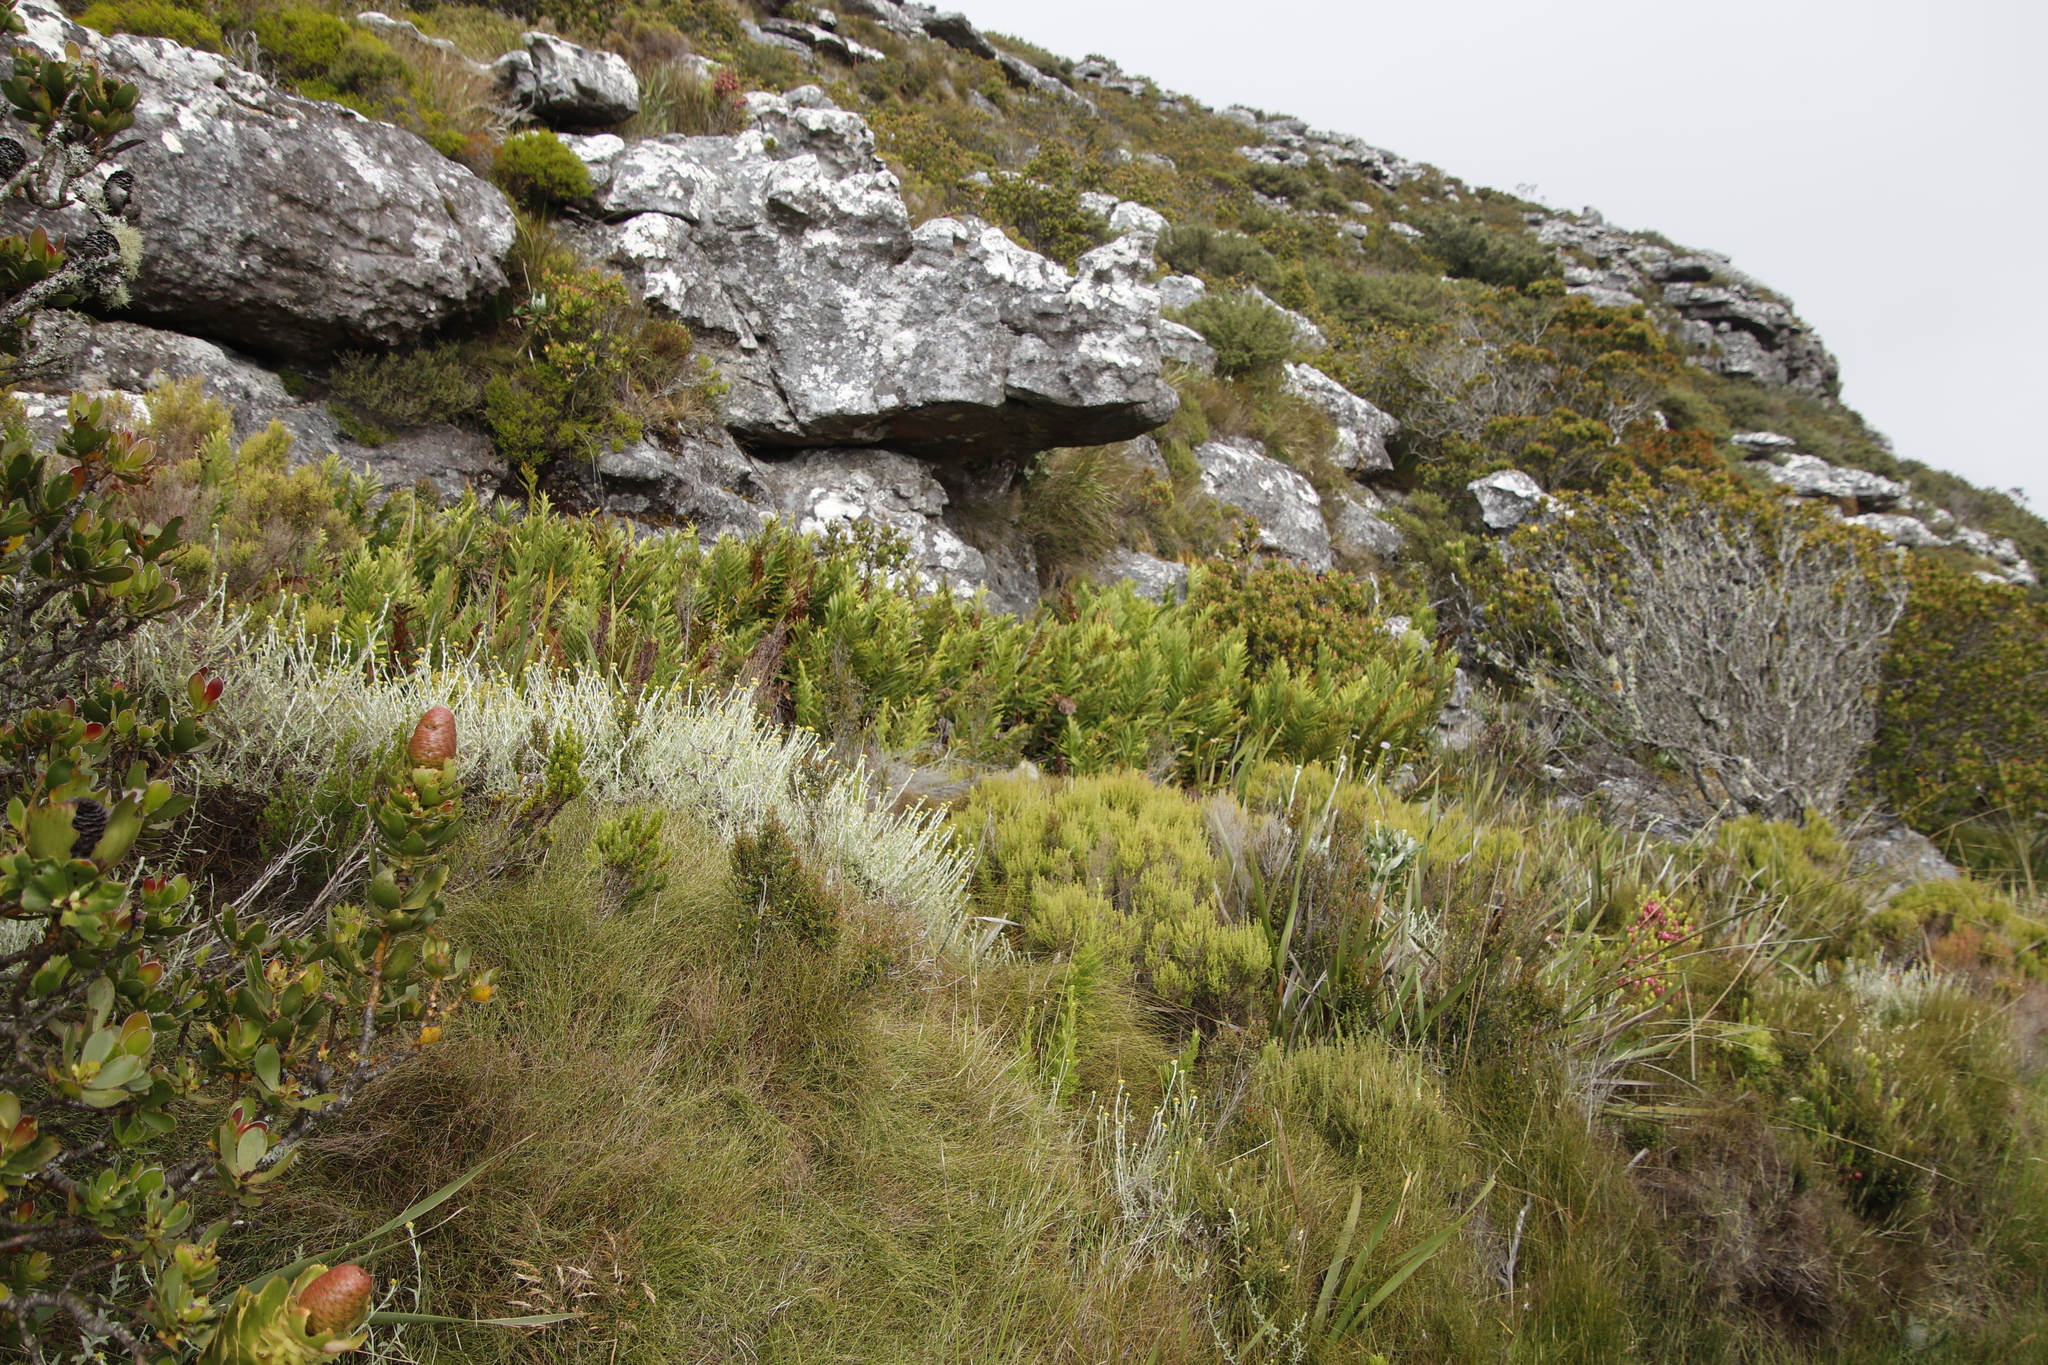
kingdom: Plantae
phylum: Tracheophyta
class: Polypodiopsida
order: Osmundales
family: Osmundaceae
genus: Todea
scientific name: Todea barbara
